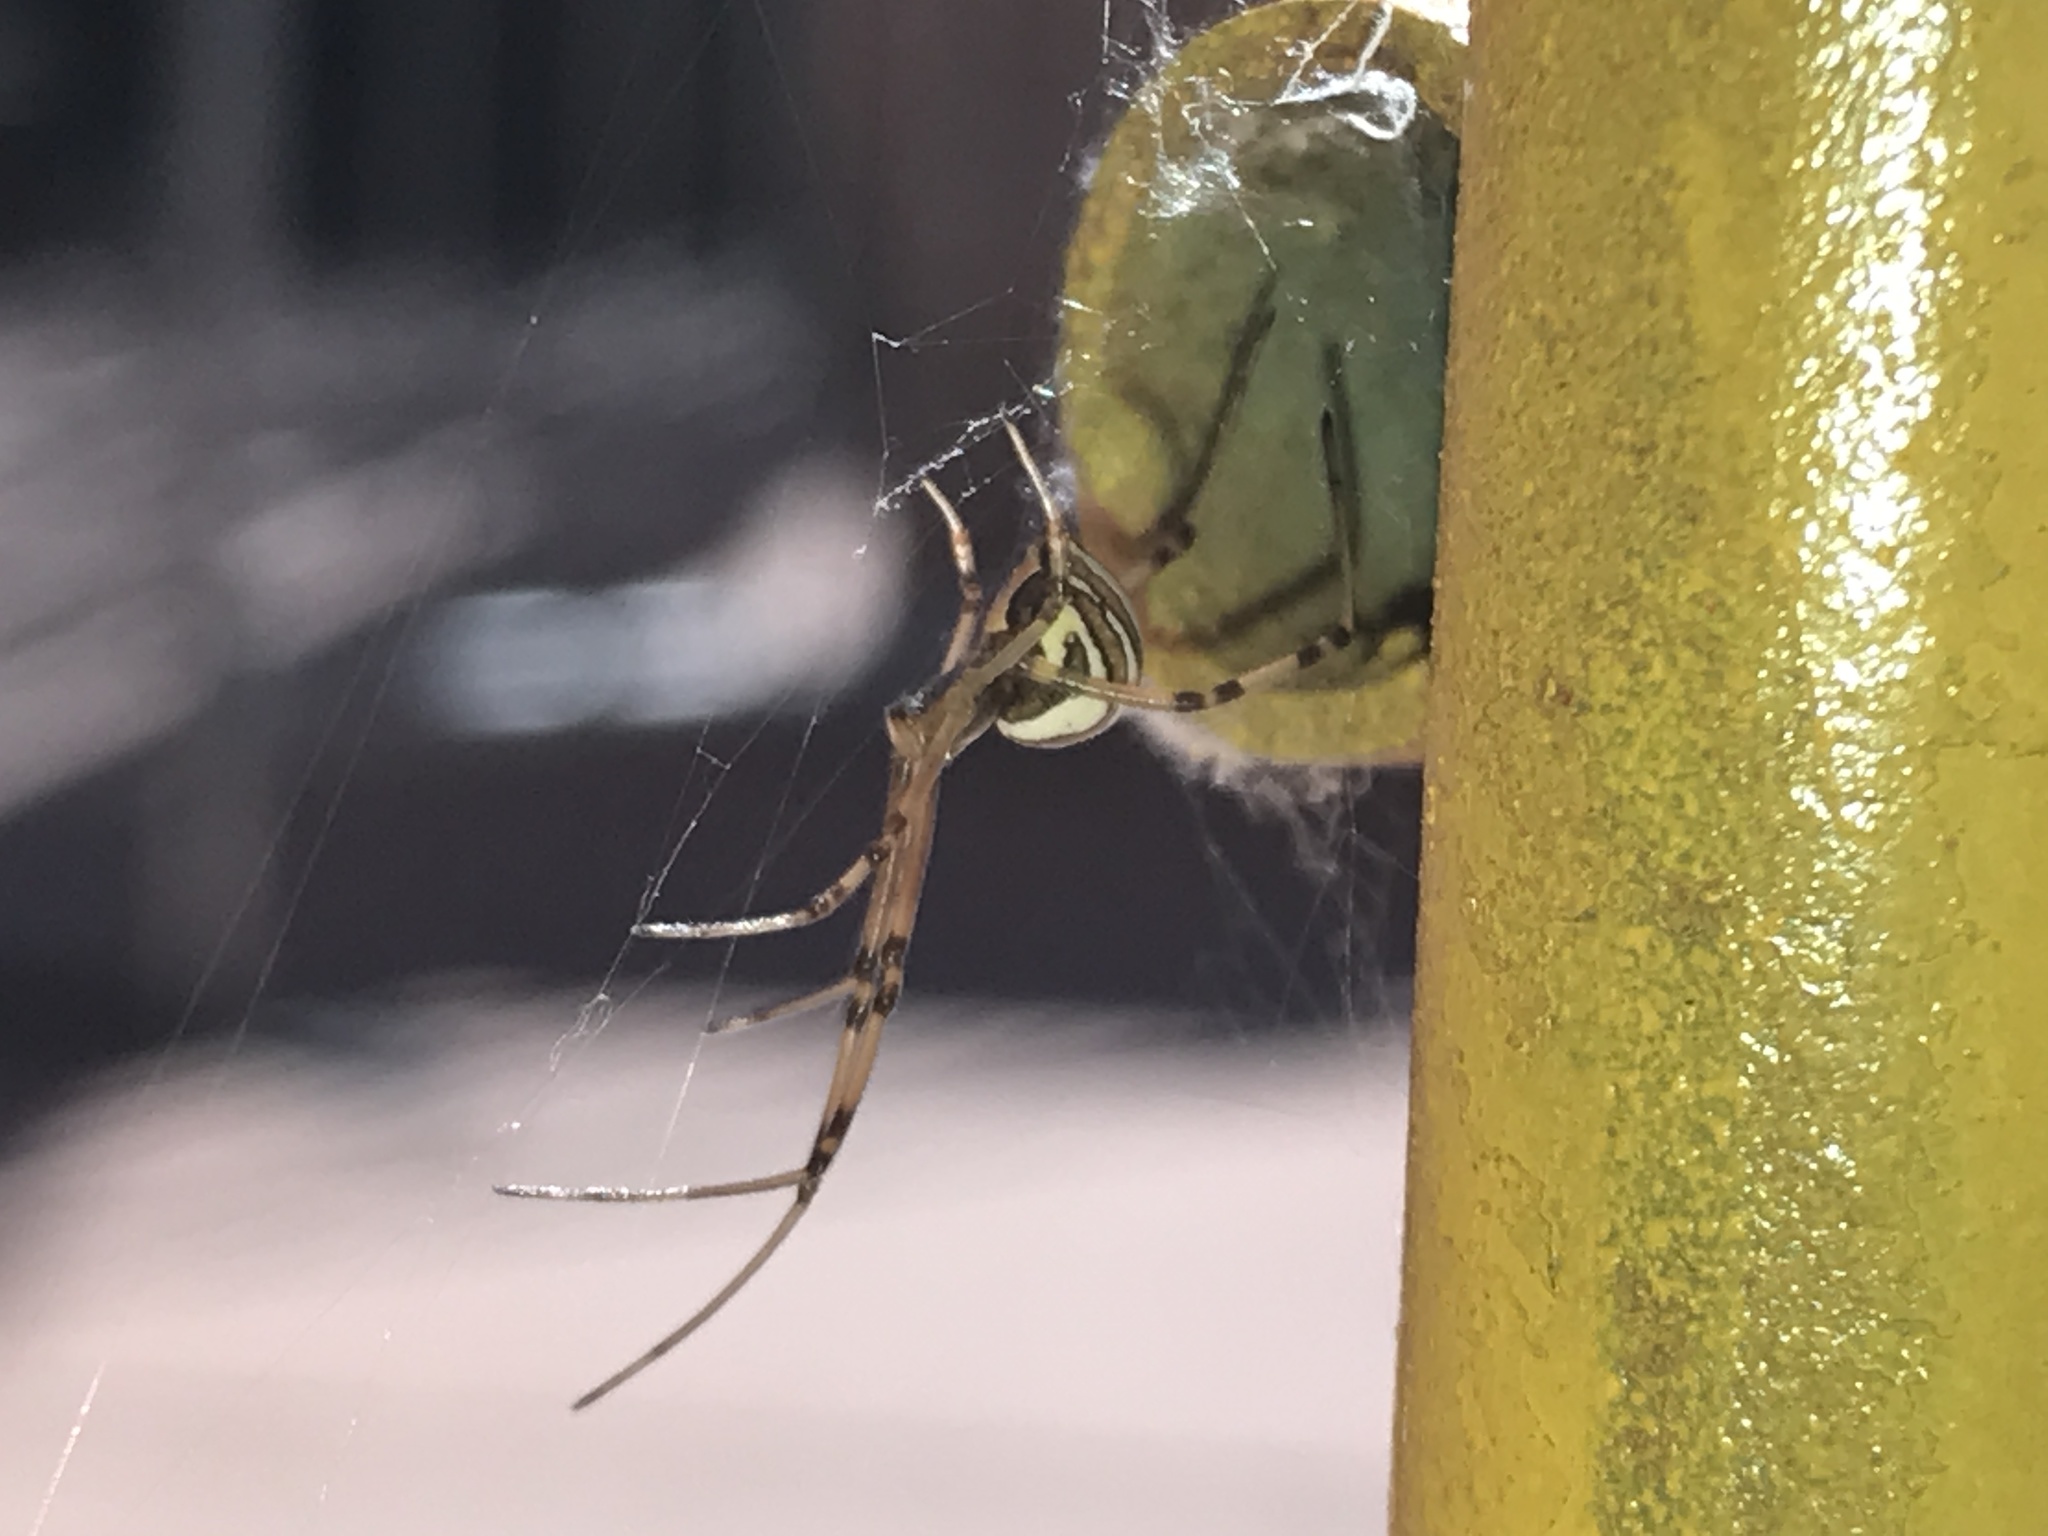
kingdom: Animalia
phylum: Arthropoda
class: Arachnida
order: Araneae
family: Theridiidae
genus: Latrodectus
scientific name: Latrodectus hesperus
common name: Western black widow
